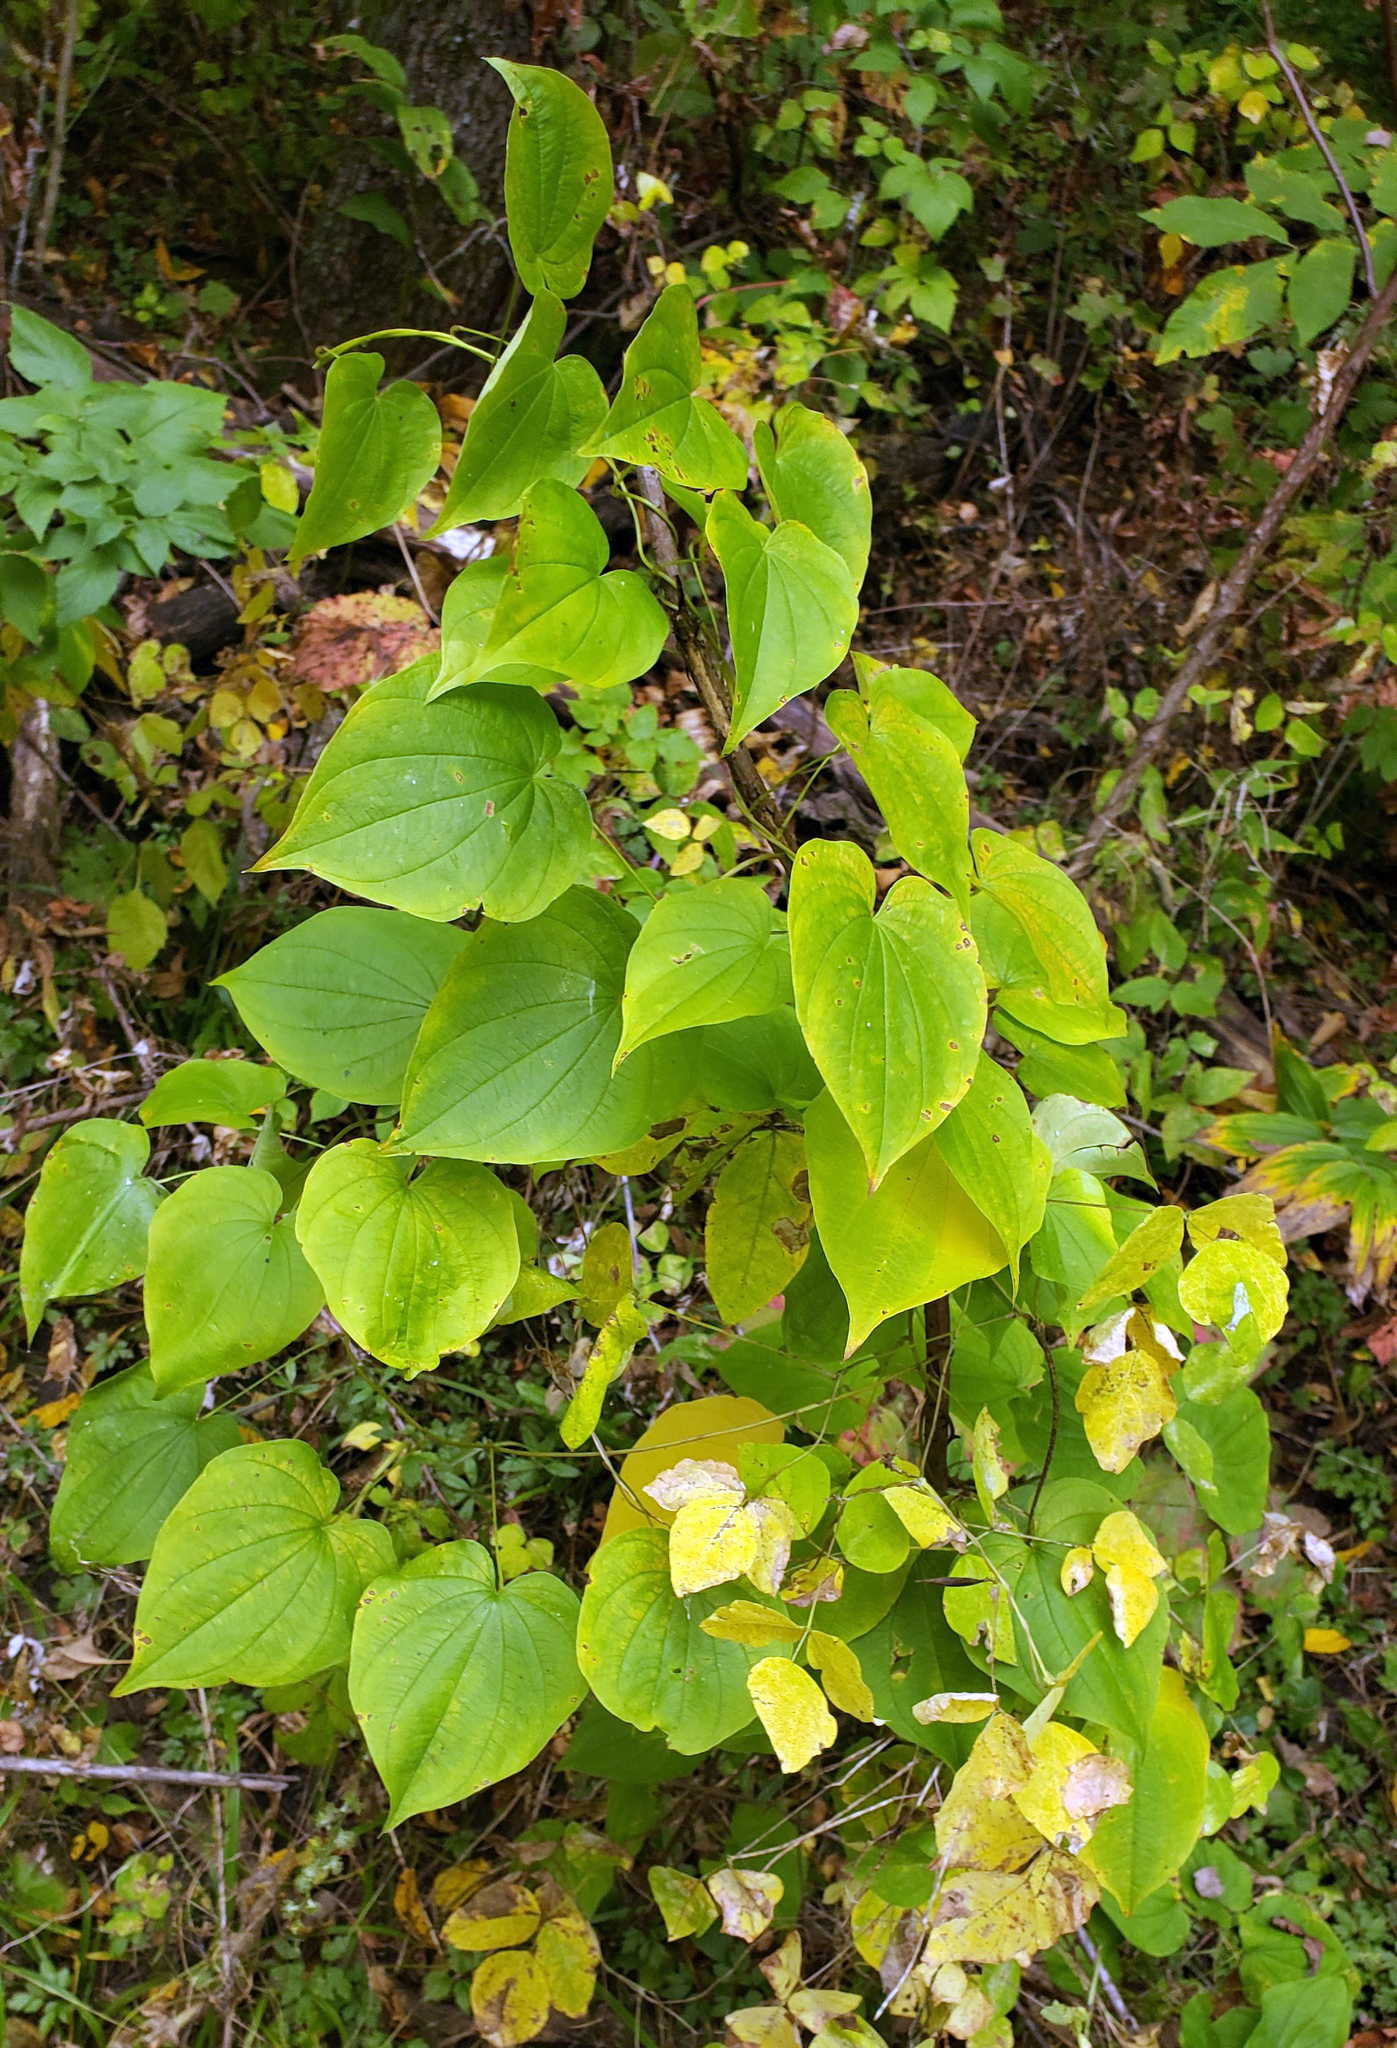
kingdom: Plantae
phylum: Tracheophyta
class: Liliopsida
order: Dioscoreales
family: Dioscoreaceae
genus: Dioscorea
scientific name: Dioscorea villosa
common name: Wild yam
